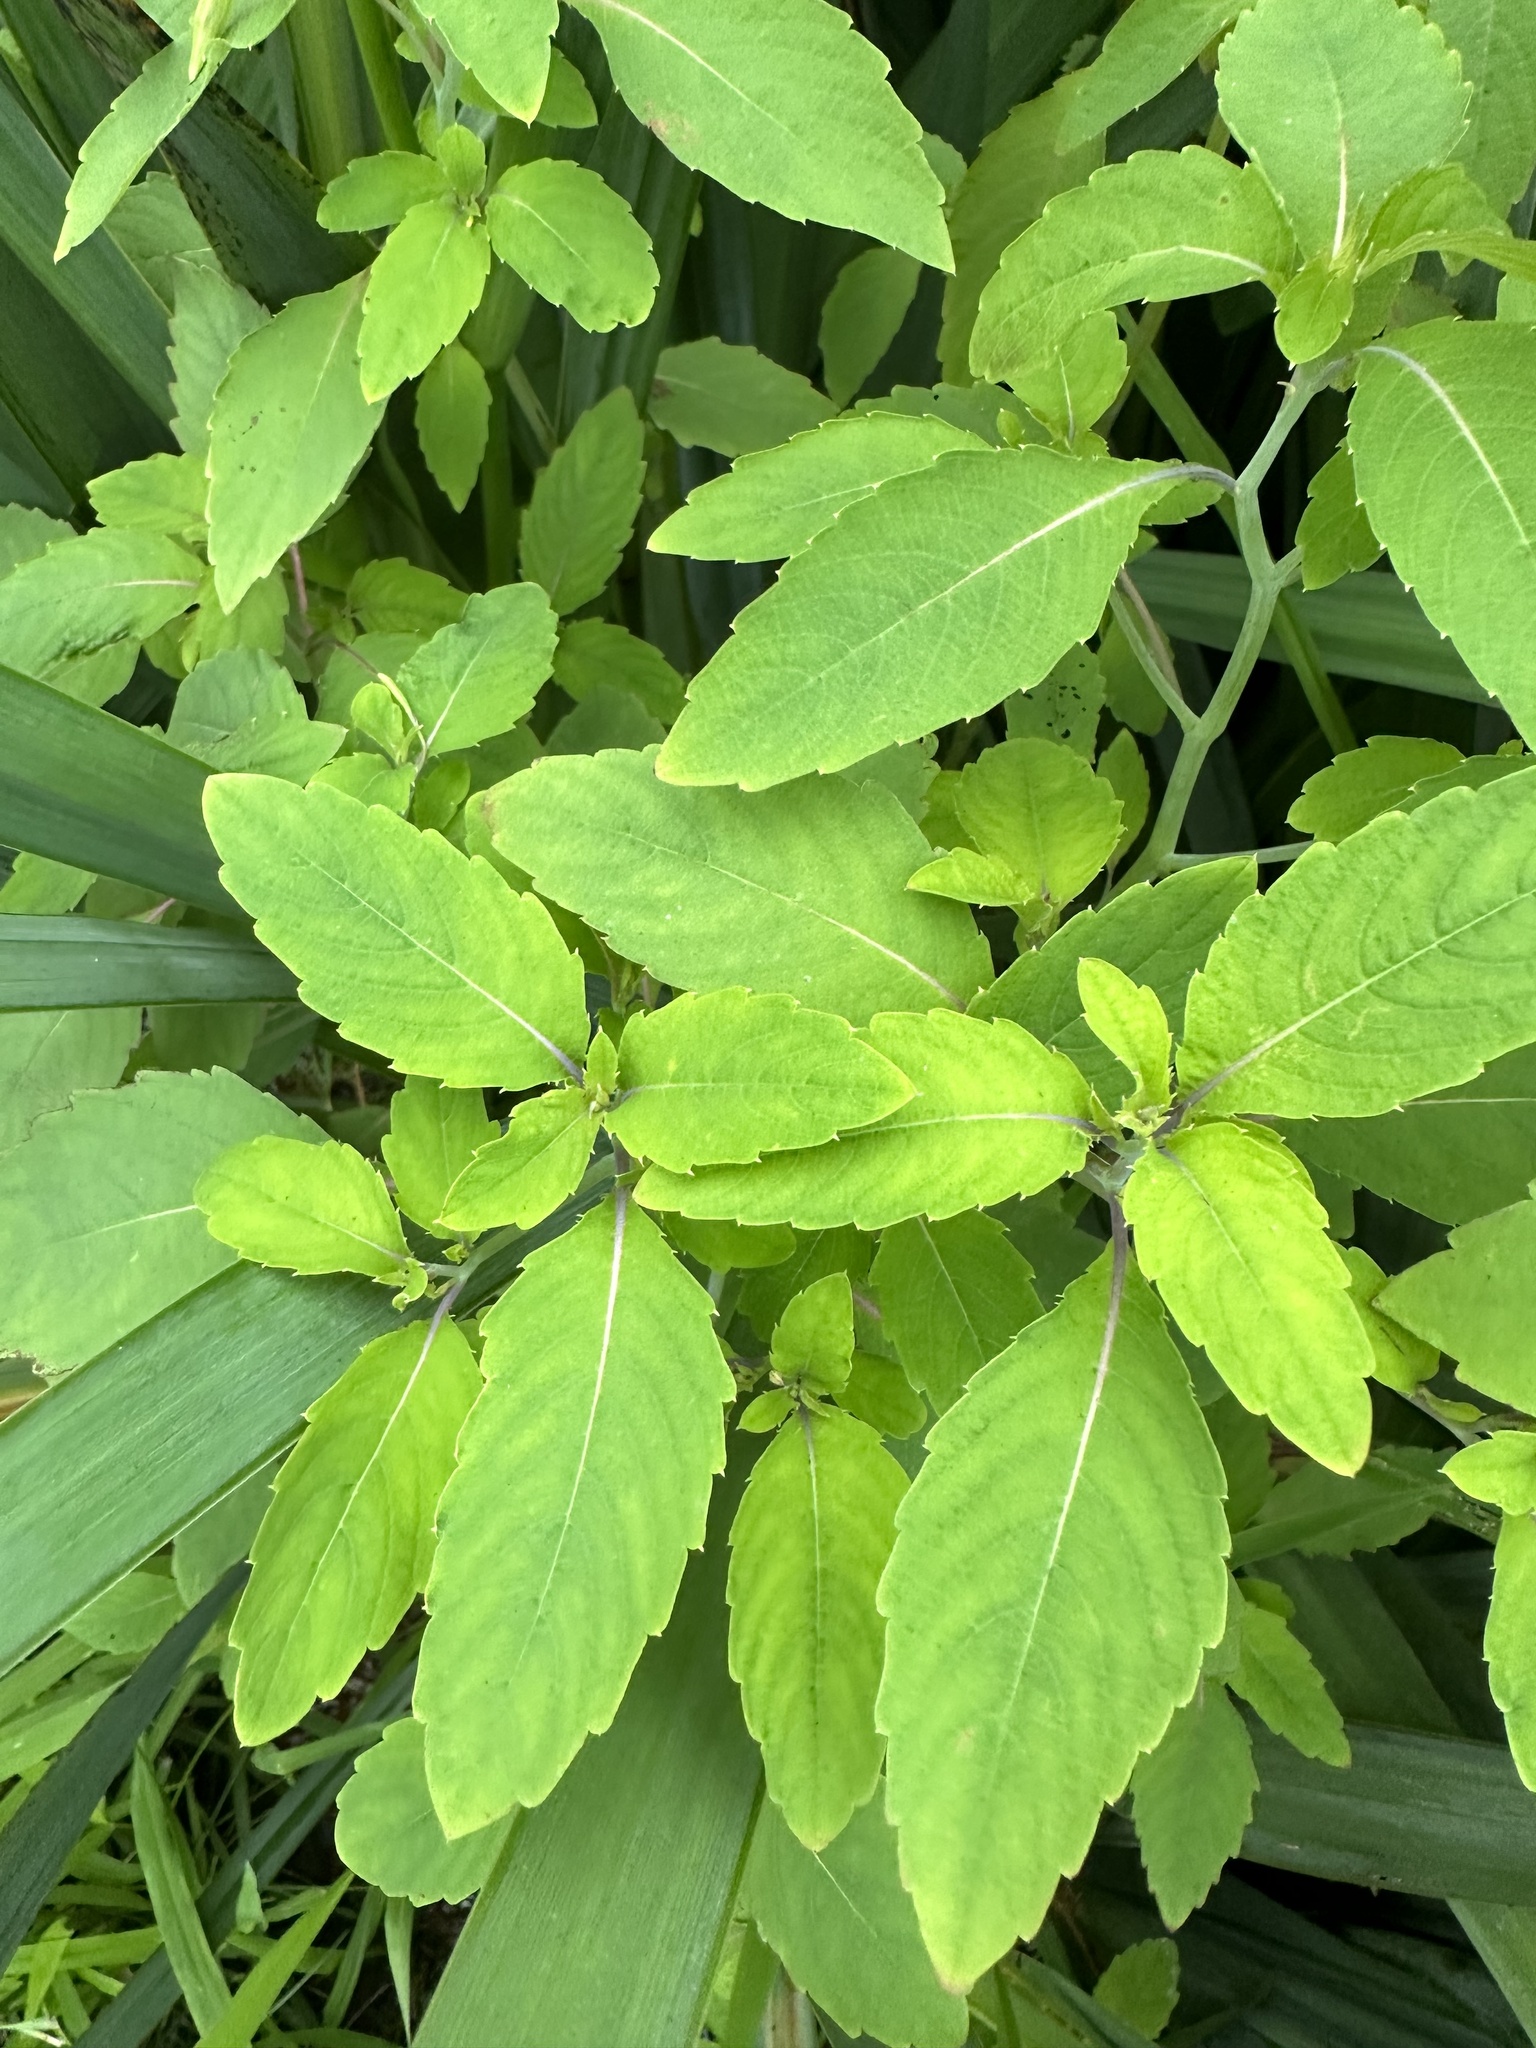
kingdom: Plantae
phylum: Tracheophyta
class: Magnoliopsida
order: Ericales
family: Balsaminaceae
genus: Impatiens
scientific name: Impatiens capensis
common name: Orange balsam
